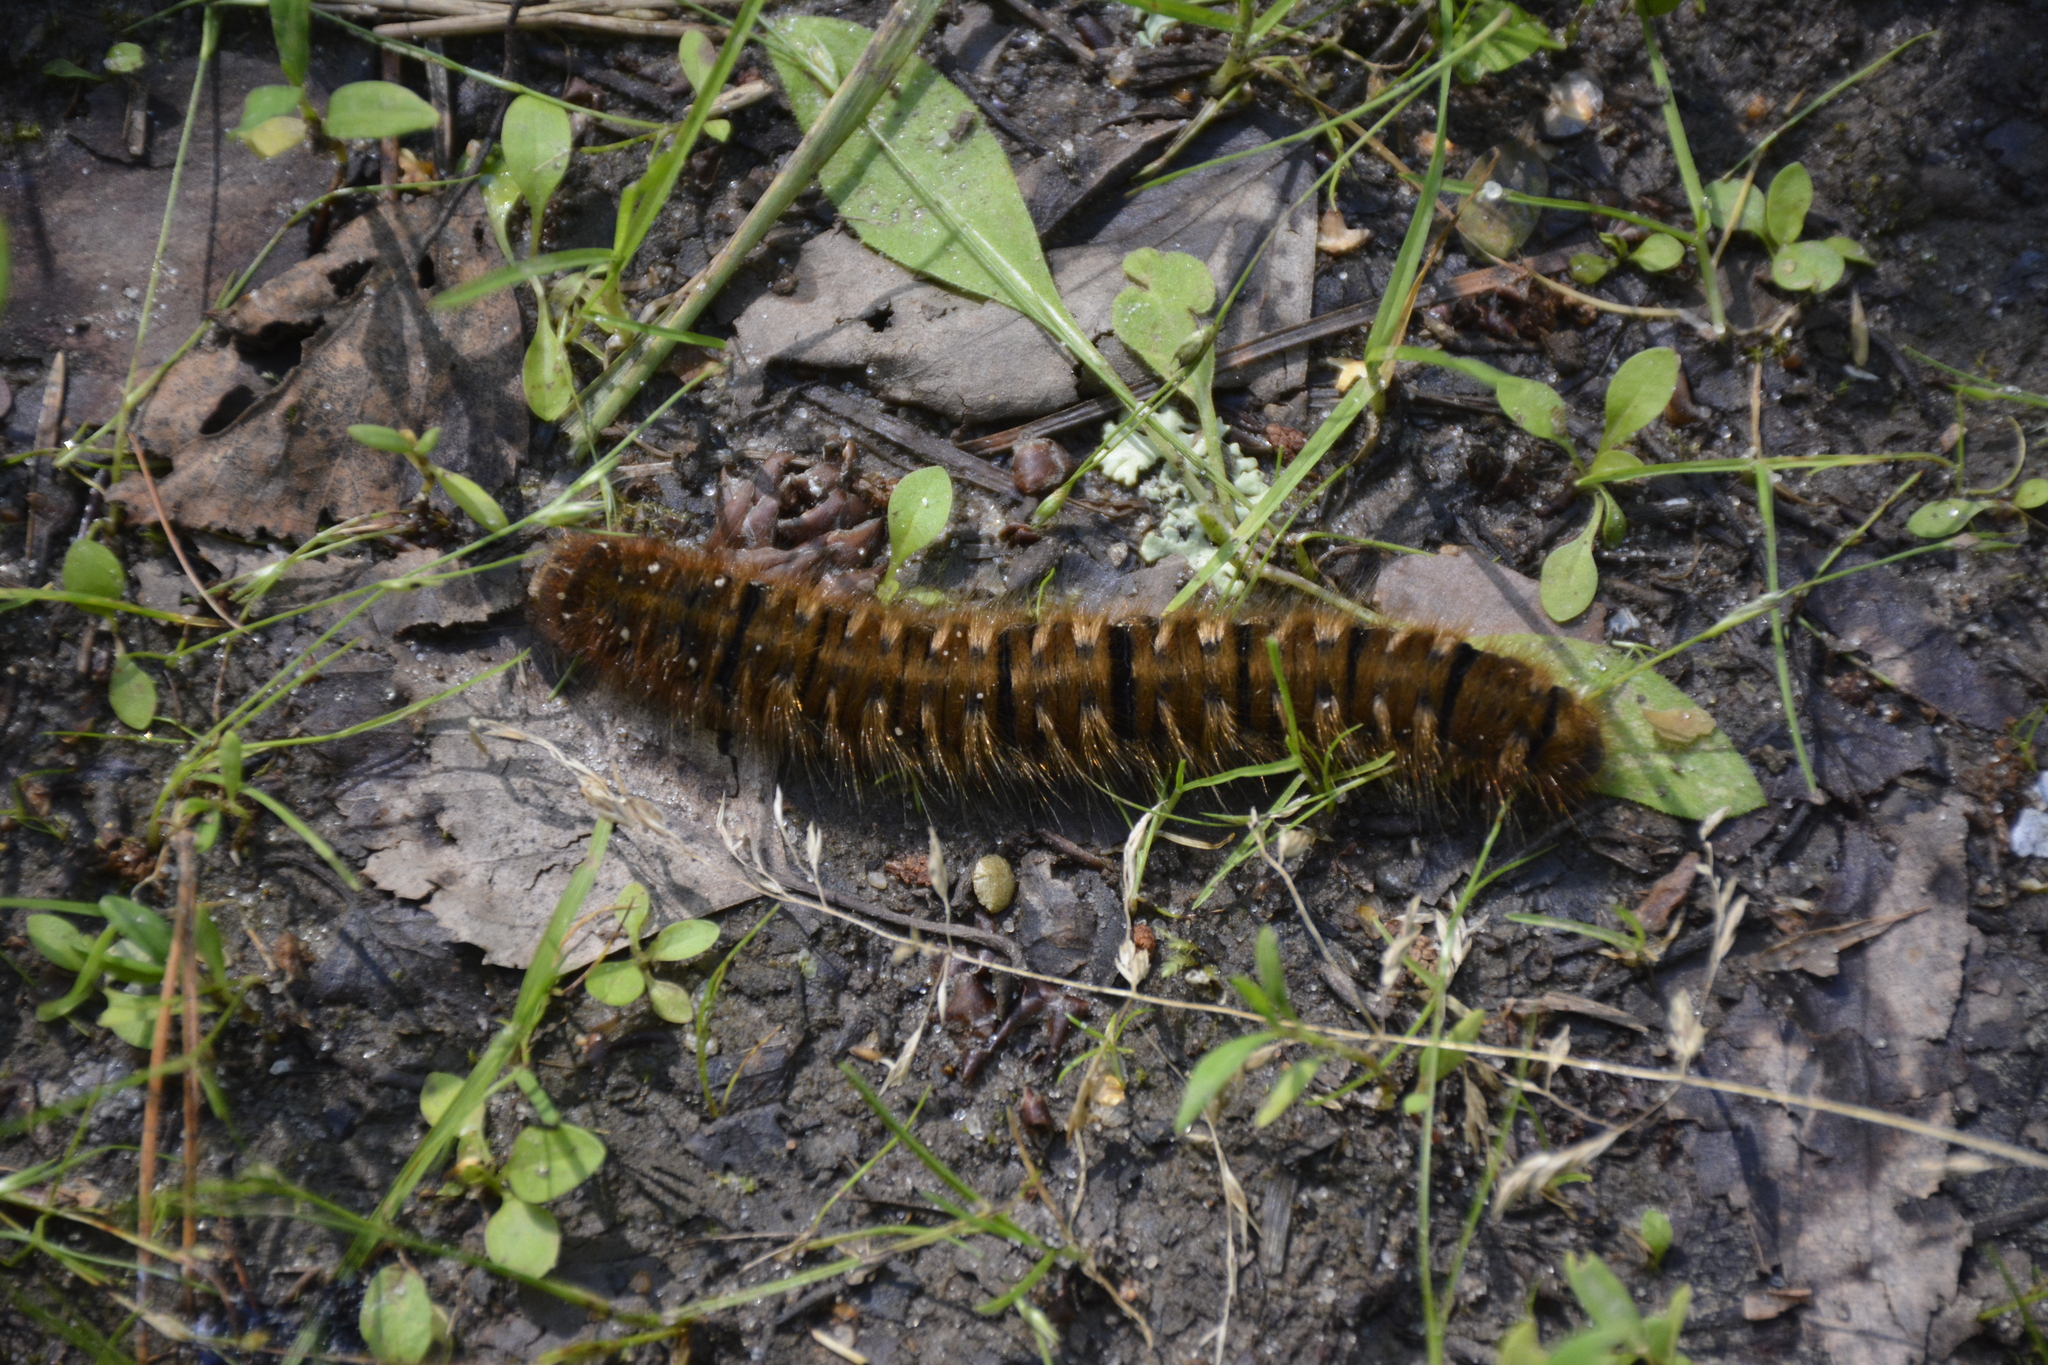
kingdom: Animalia
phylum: Arthropoda
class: Insecta
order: Lepidoptera
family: Lasiocampidae
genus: Lasiocampa
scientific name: Lasiocampa quercus
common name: Oak eggar
